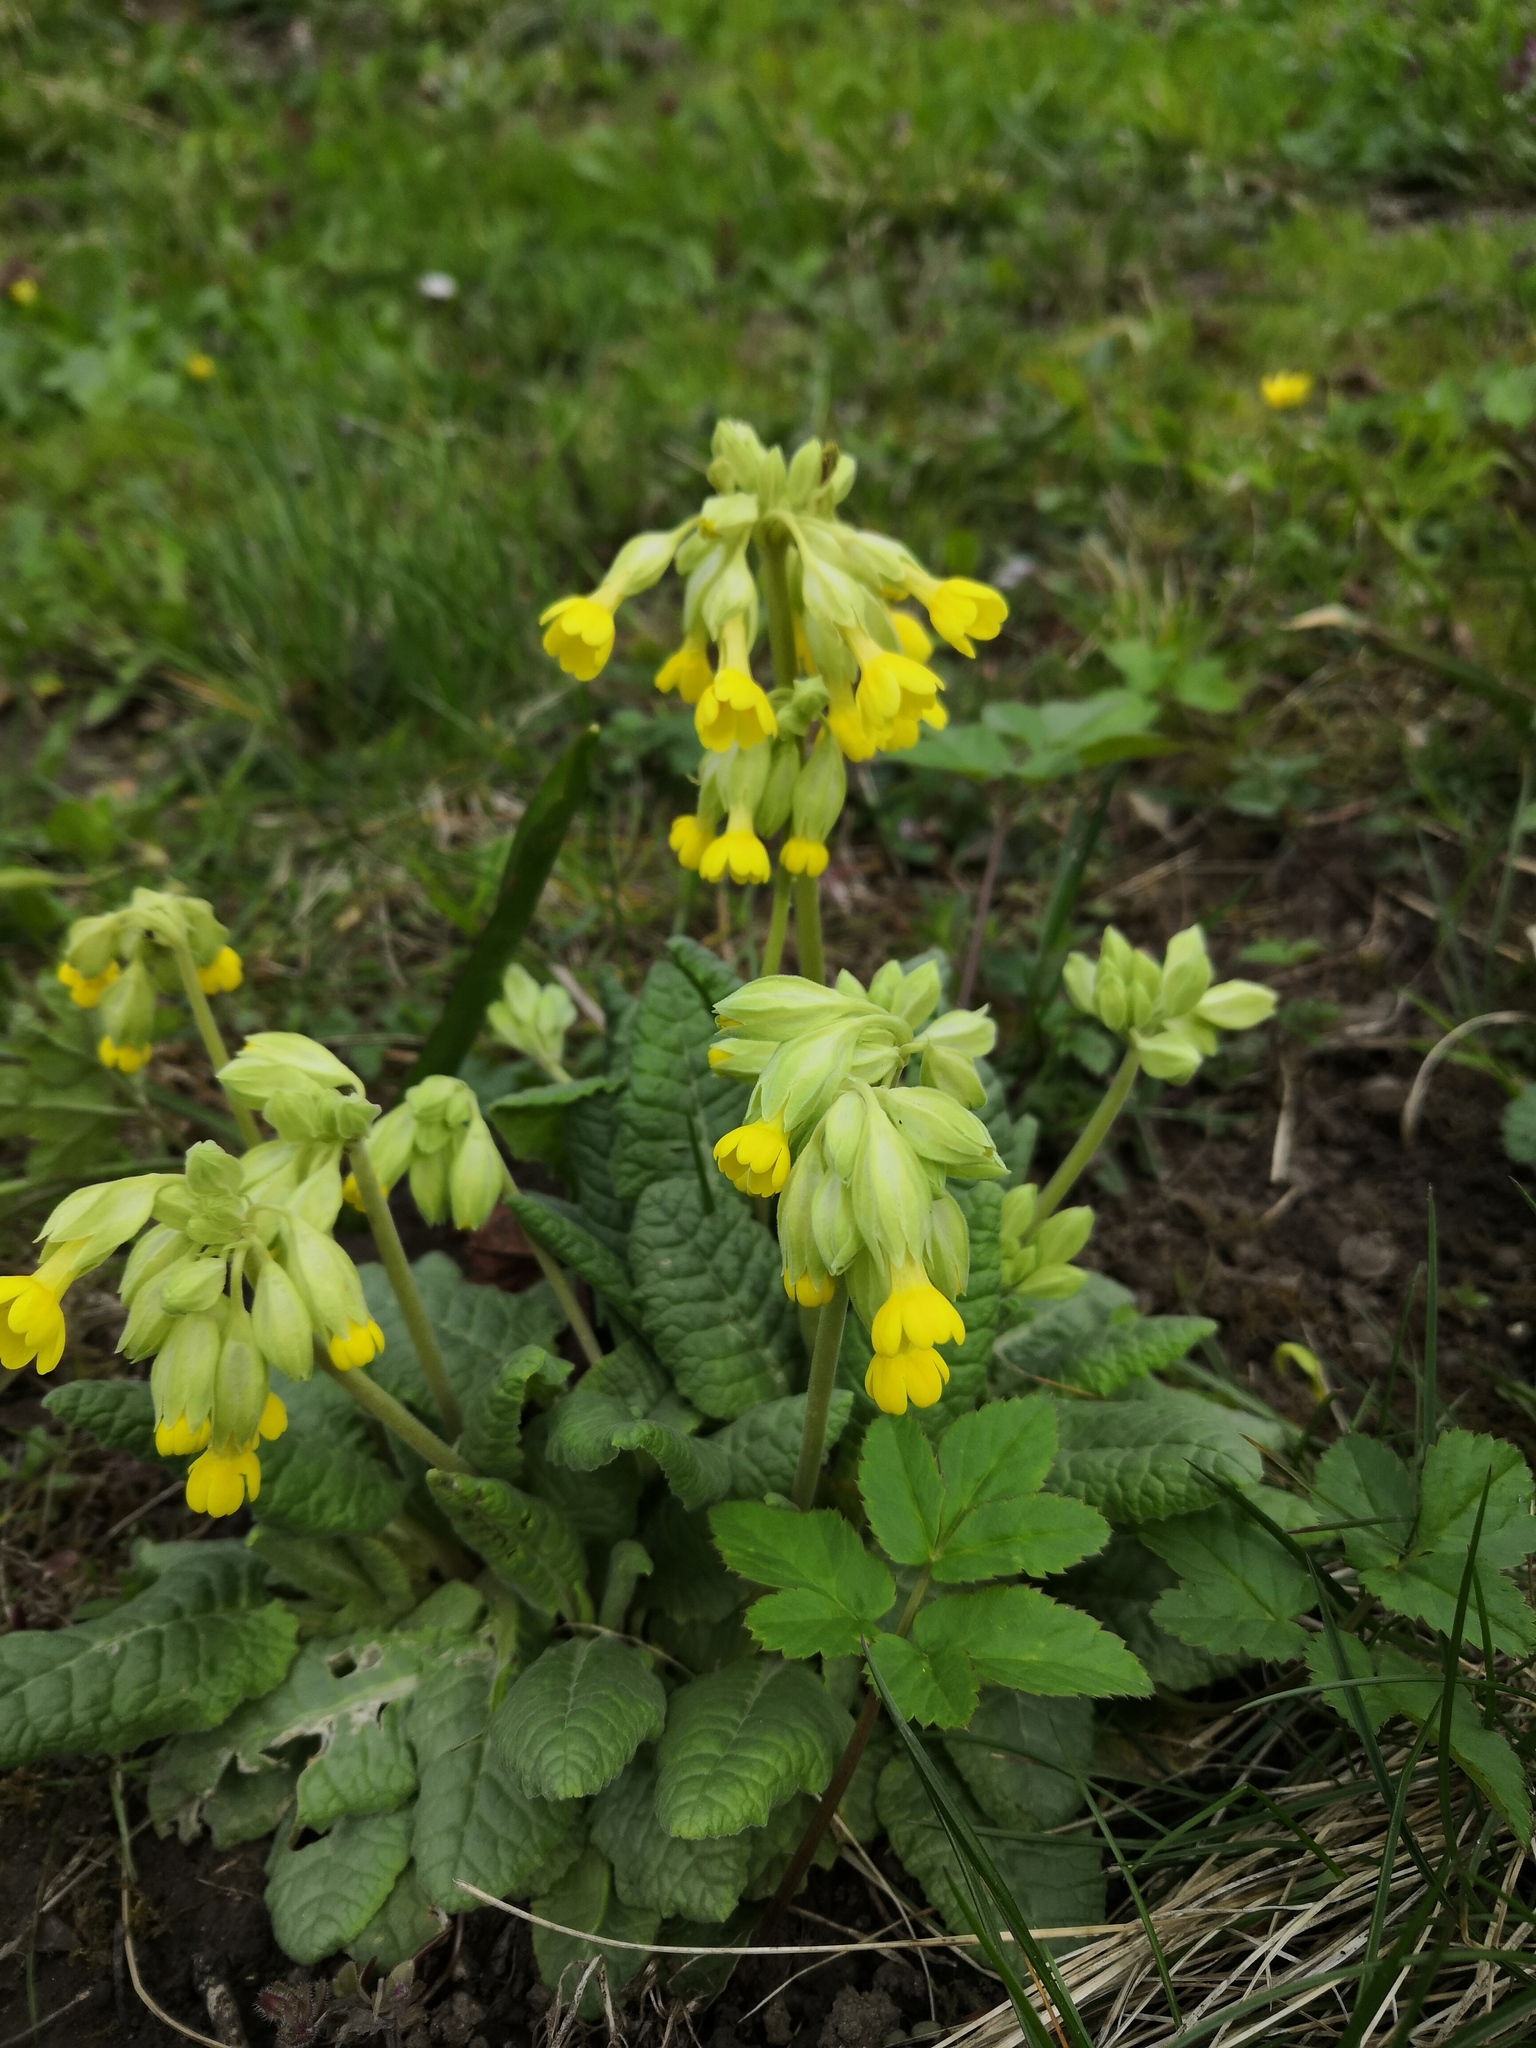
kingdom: Plantae
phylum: Tracheophyta
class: Magnoliopsida
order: Ericales
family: Primulaceae
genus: Primula
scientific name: Primula veris
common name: Cowslip
